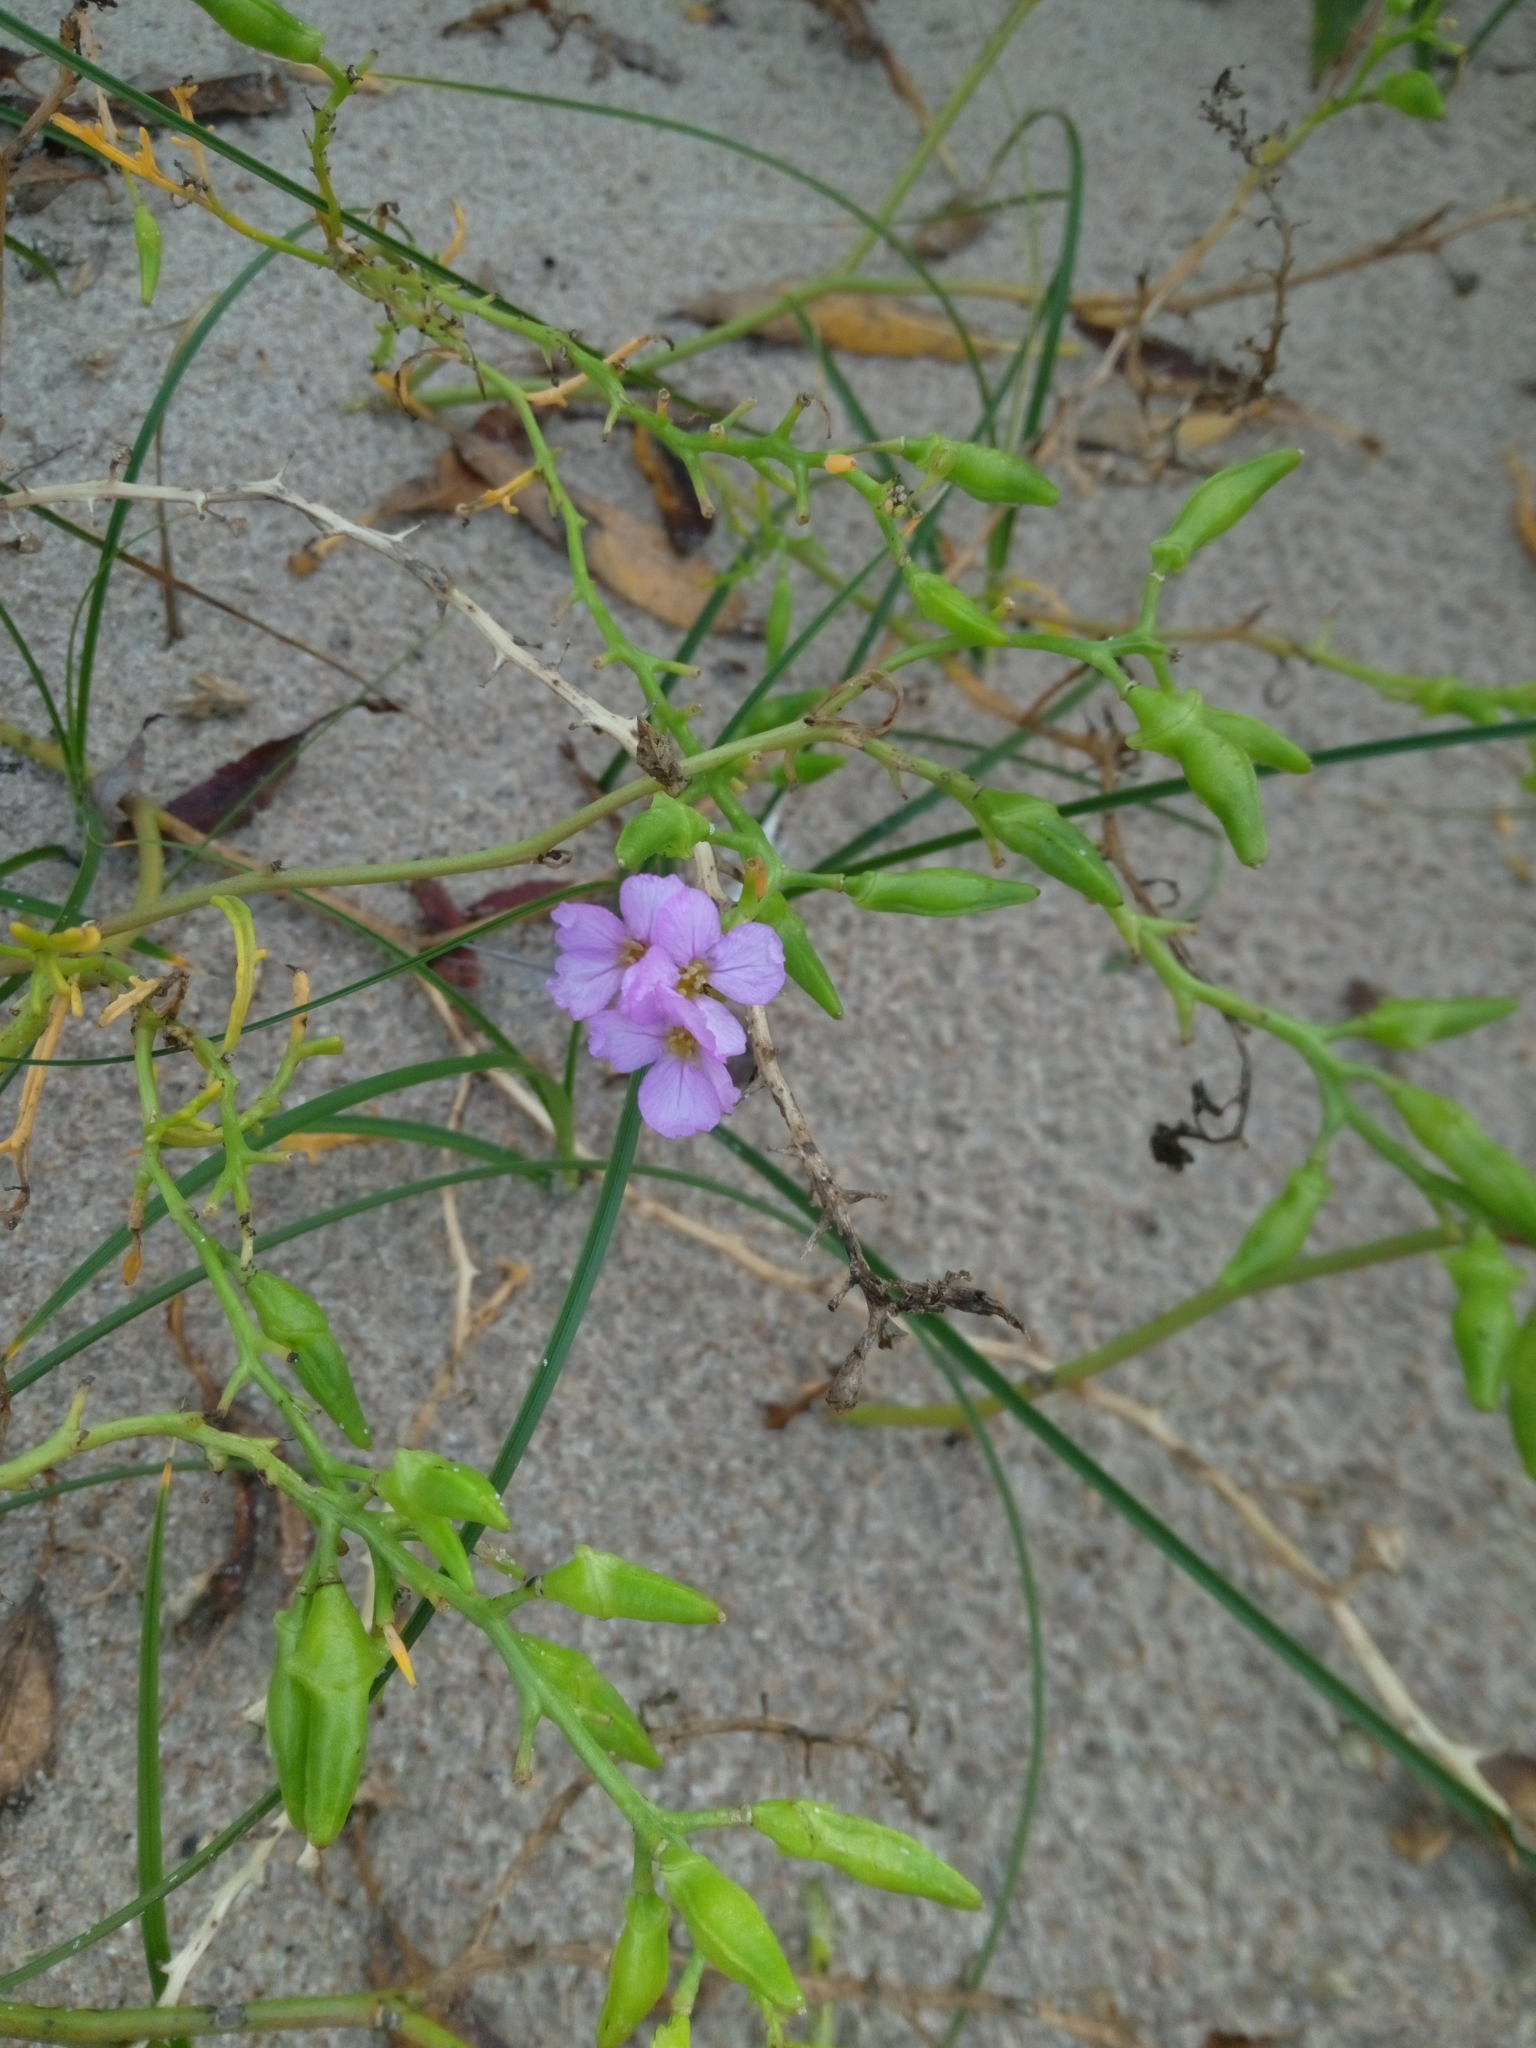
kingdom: Plantae
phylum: Tracheophyta
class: Magnoliopsida
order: Brassicales
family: Brassicaceae
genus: Cakile
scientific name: Cakile maritima
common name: Sea rocket
